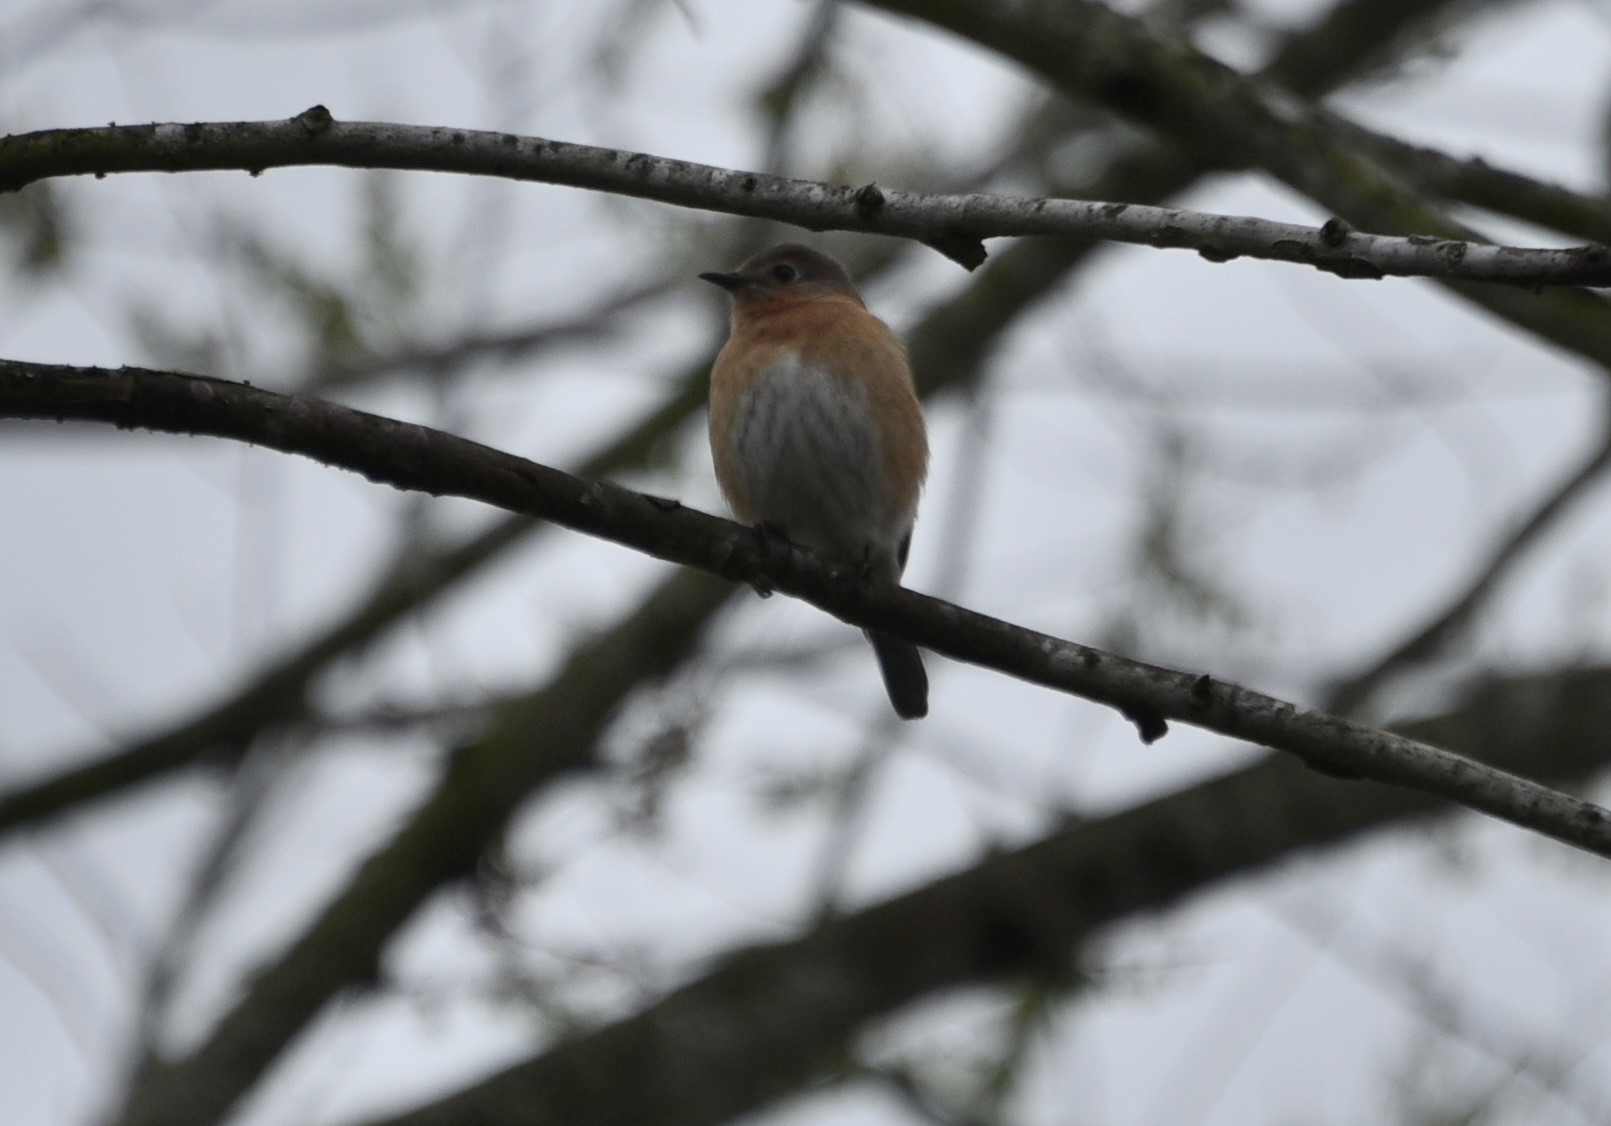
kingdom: Animalia
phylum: Chordata
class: Aves
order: Passeriformes
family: Turdidae
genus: Sialia
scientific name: Sialia sialis
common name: Eastern bluebird
